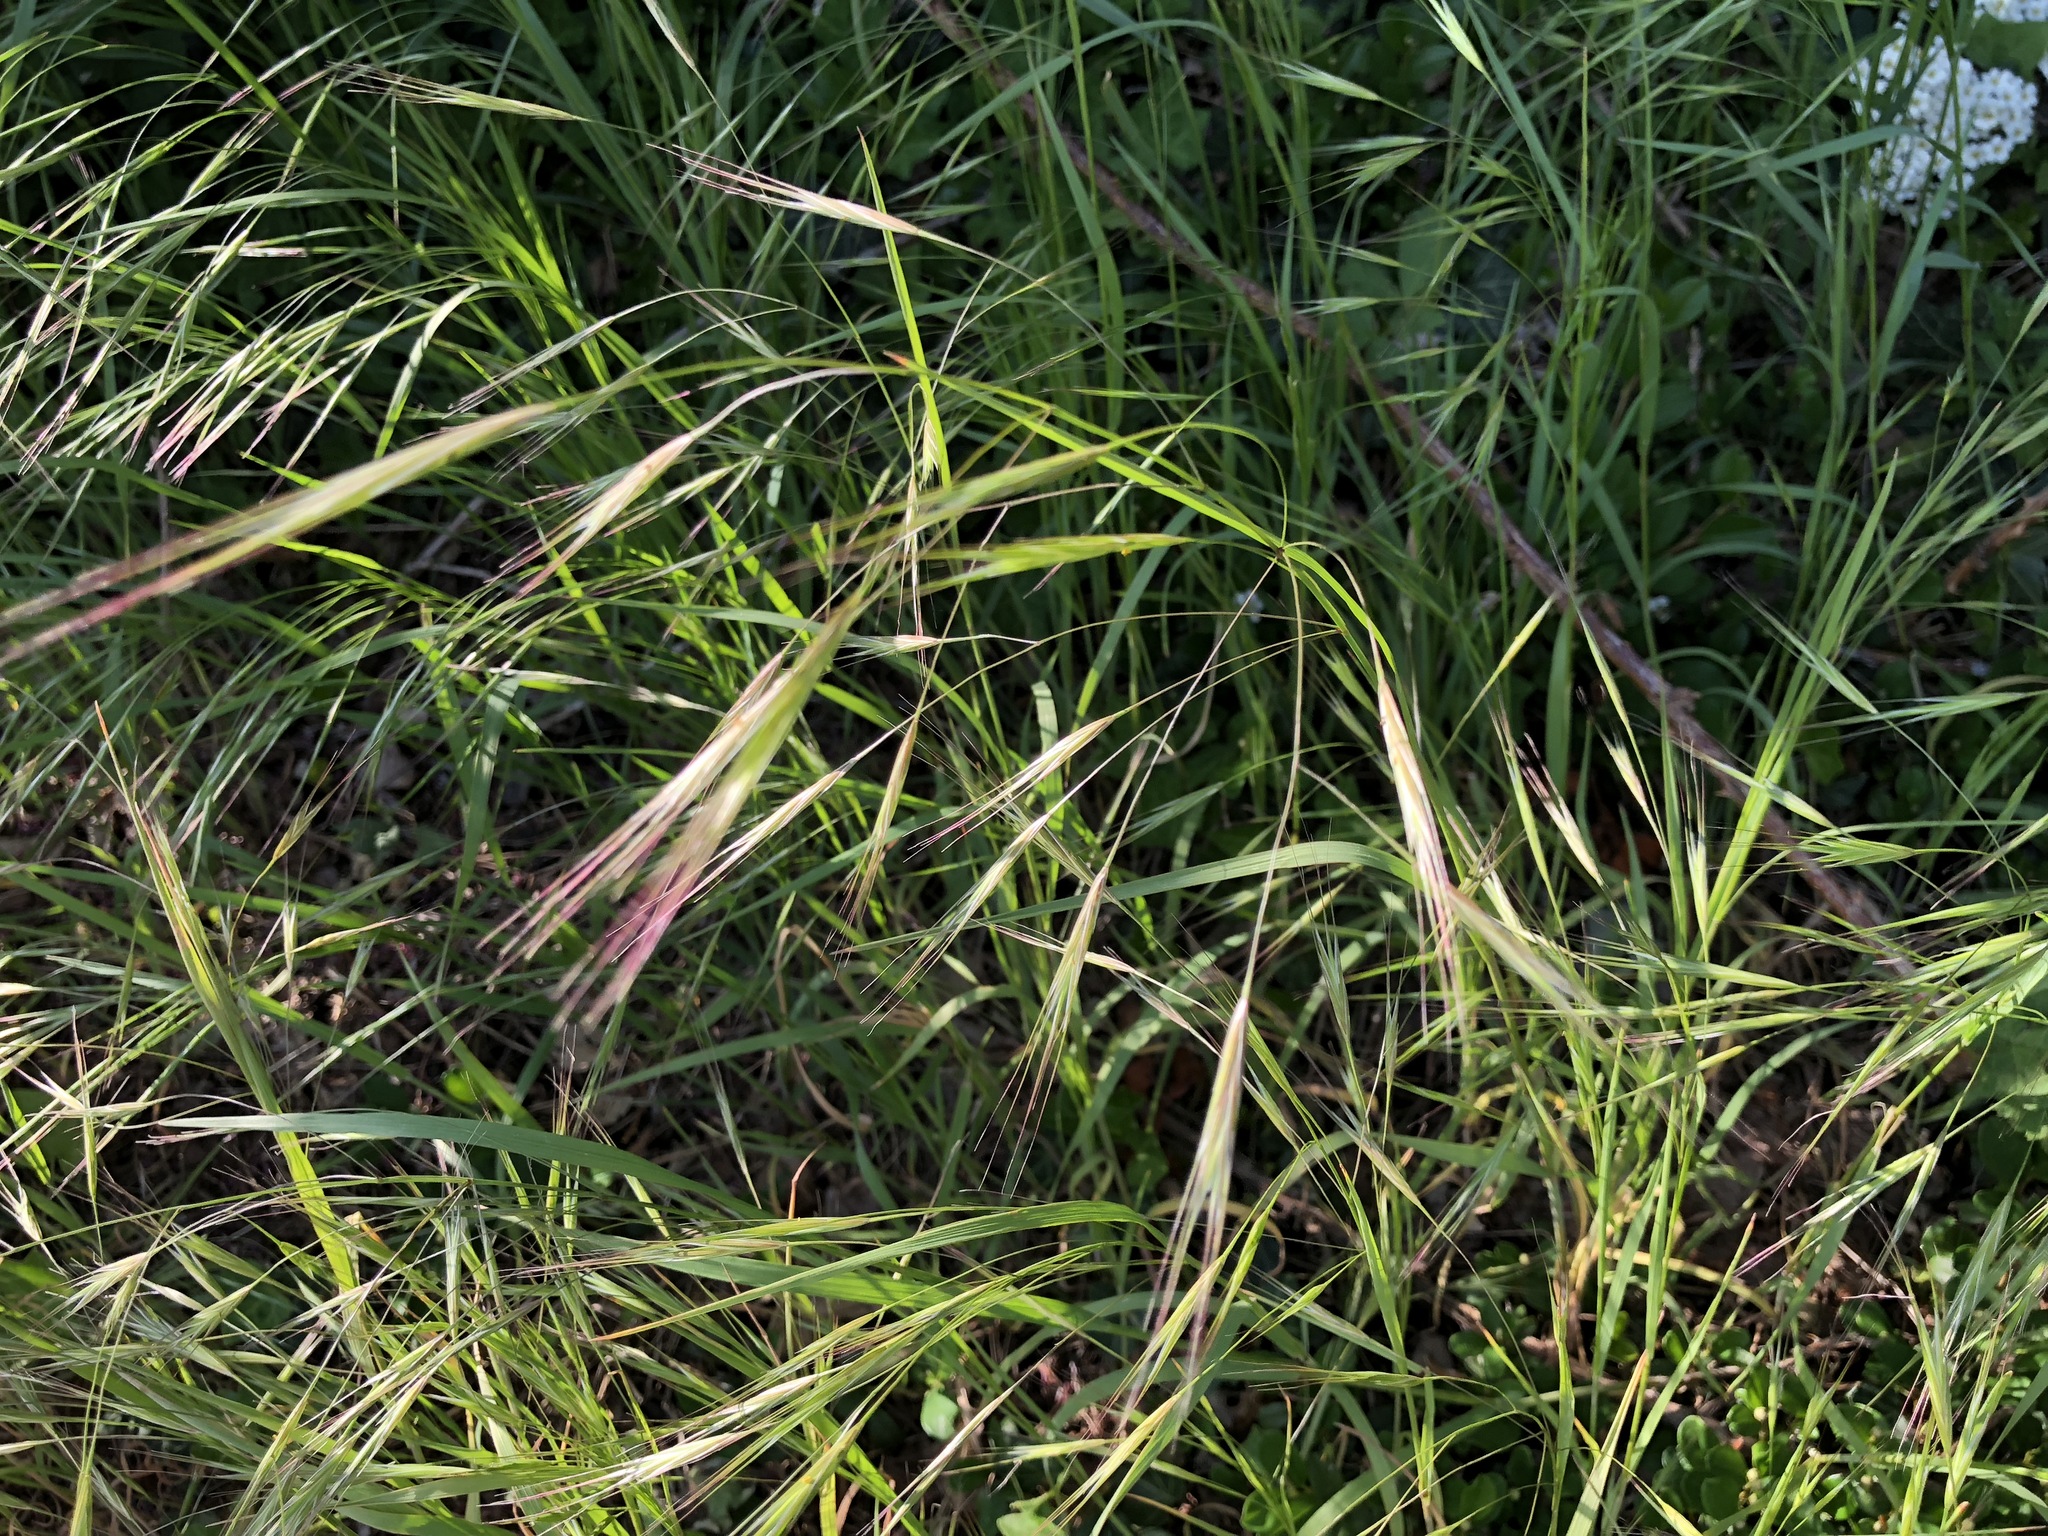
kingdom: Plantae
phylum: Tracheophyta
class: Liliopsida
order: Poales
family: Poaceae
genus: Bromus
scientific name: Bromus sterilis
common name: Poverty brome
